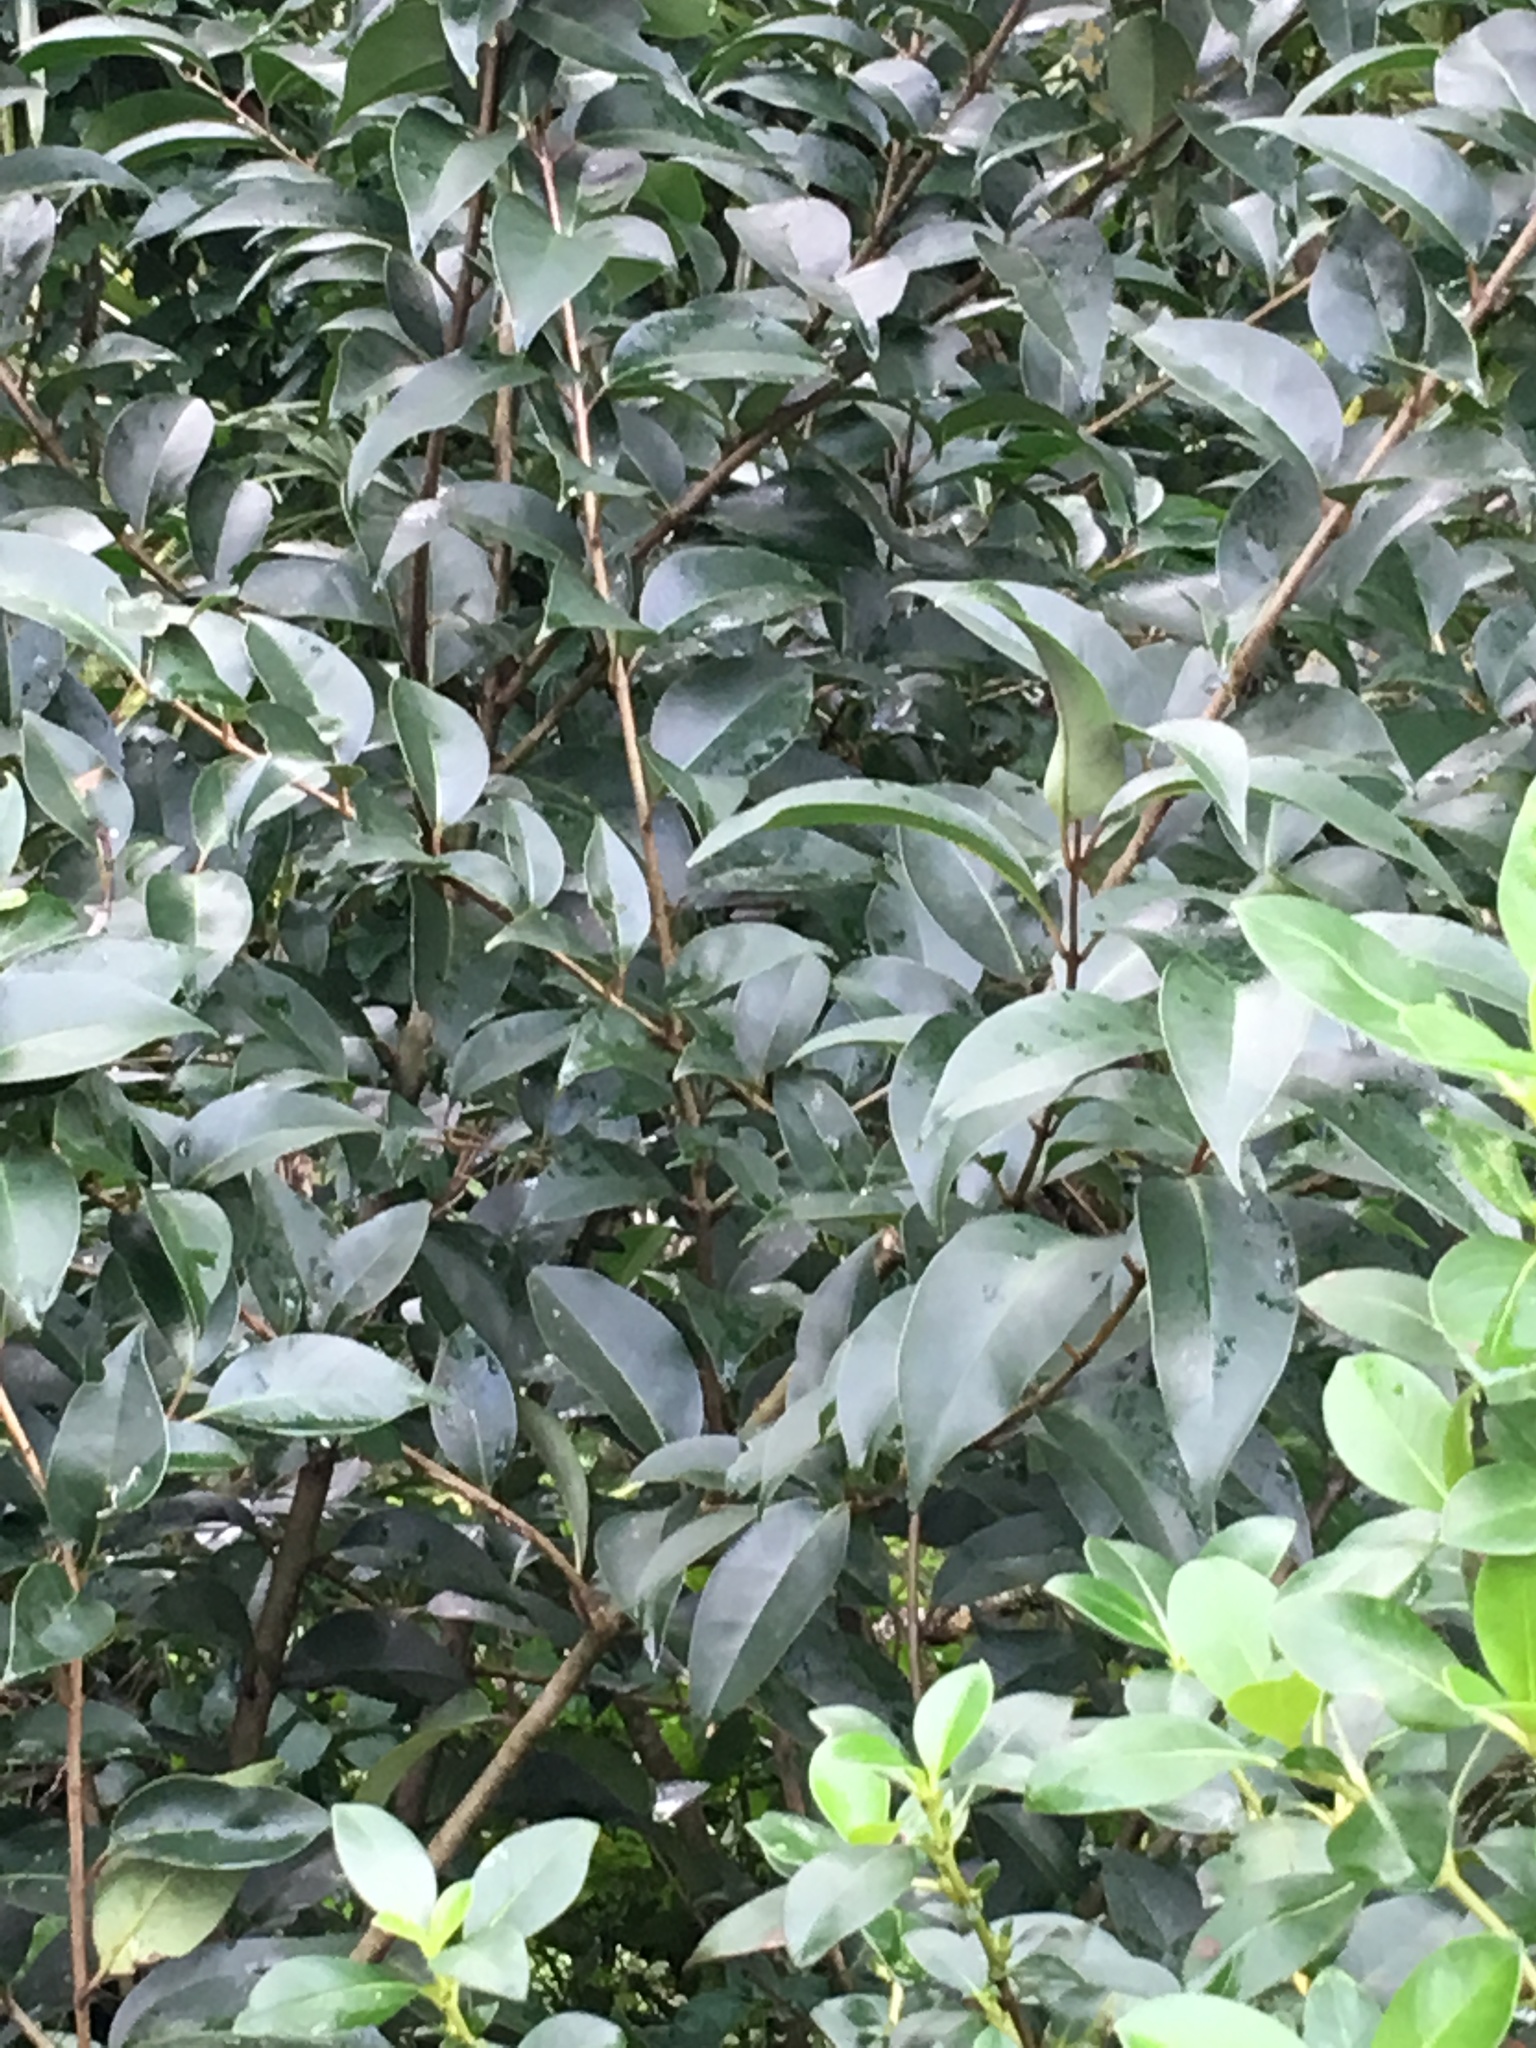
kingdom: Plantae
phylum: Tracheophyta
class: Magnoliopsida
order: Lamiales
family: Oleaceae
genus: Ligustrum
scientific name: Ligustrum lucidum
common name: Glossy privet
